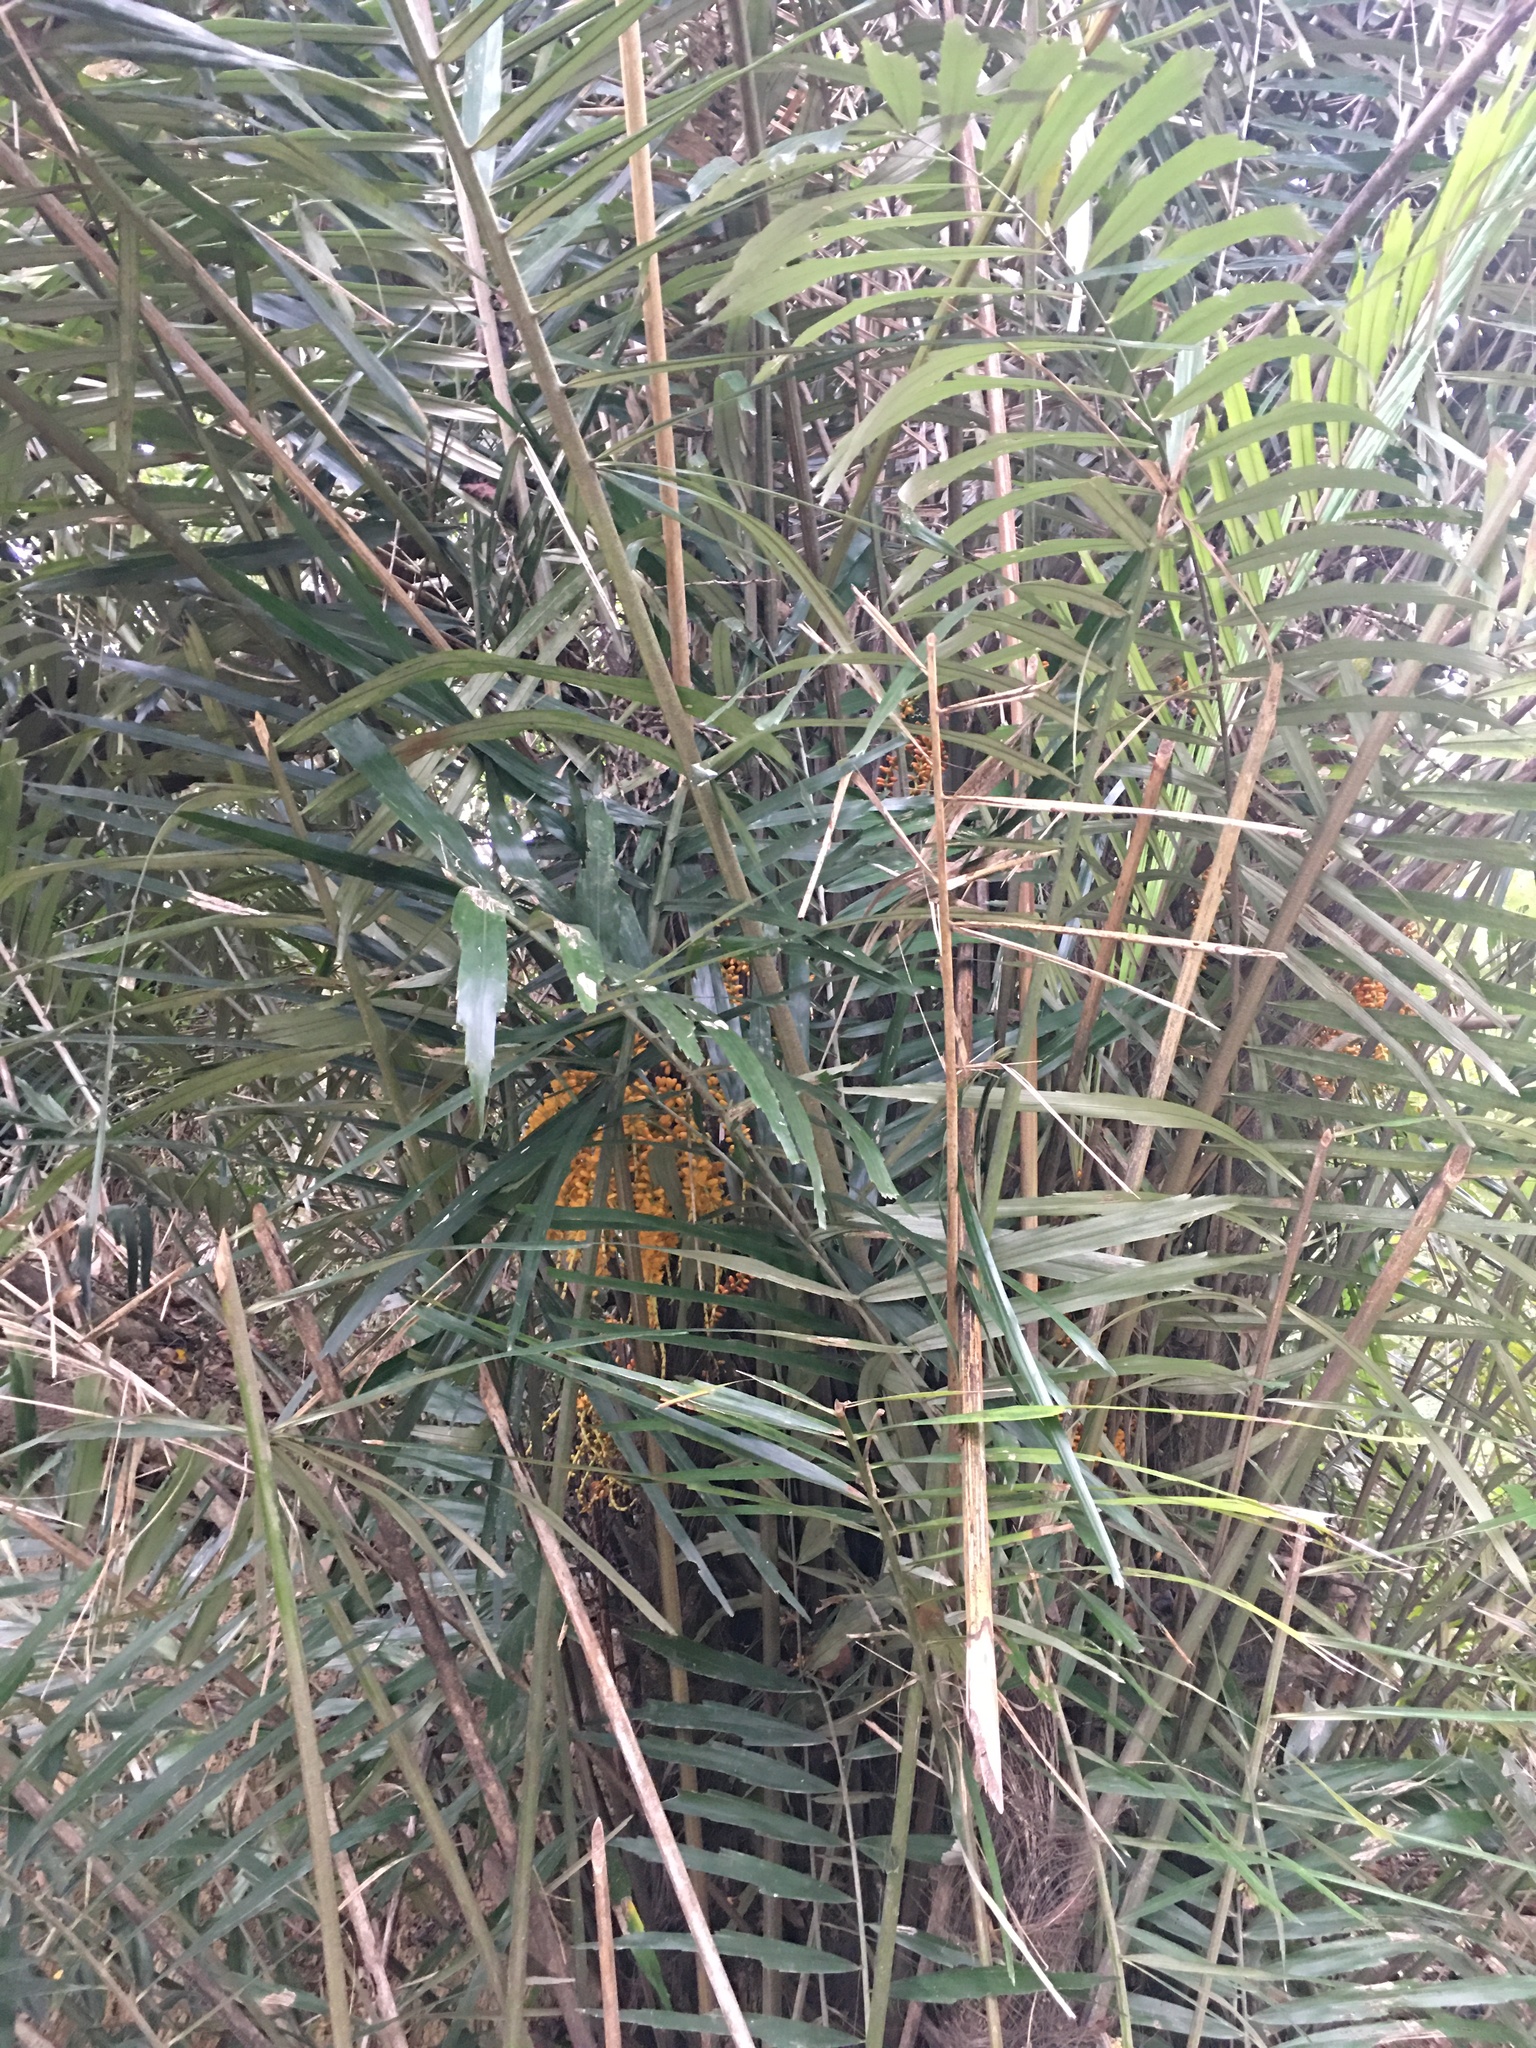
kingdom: Plantae
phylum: Tracheophyta
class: Liliopsida
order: Arecales
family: Arecaceae
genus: Arenga
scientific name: Arenga engleri
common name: Formosan sugar palm
